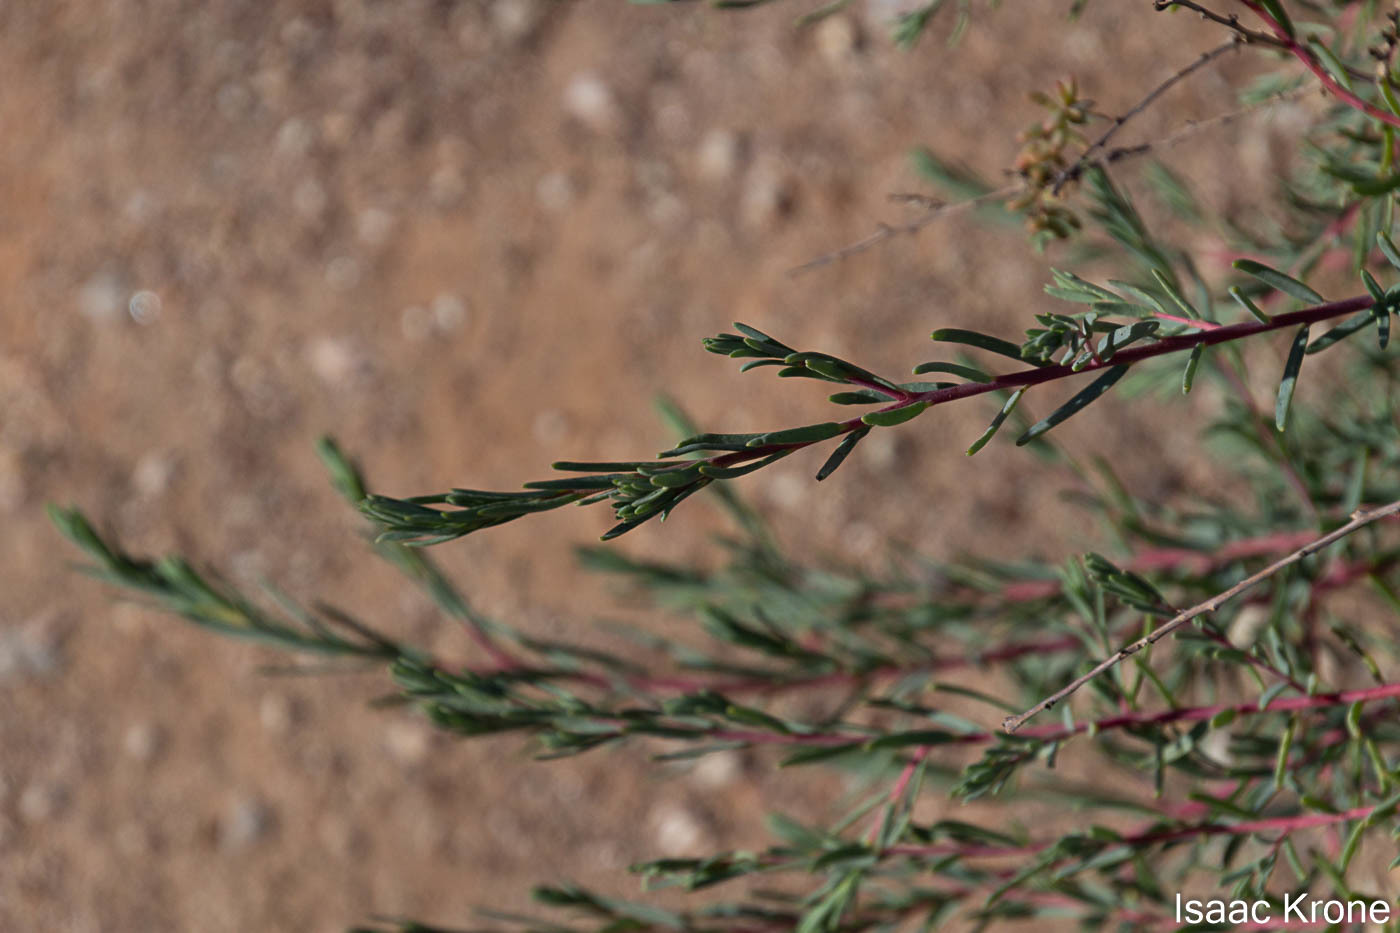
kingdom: Plantae
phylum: Tracheophyta
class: Magnoliopsida
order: Caryophyllales
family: Amaranthaceae
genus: Suaeda
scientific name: Suaeda nigra
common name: Bush seepweed
